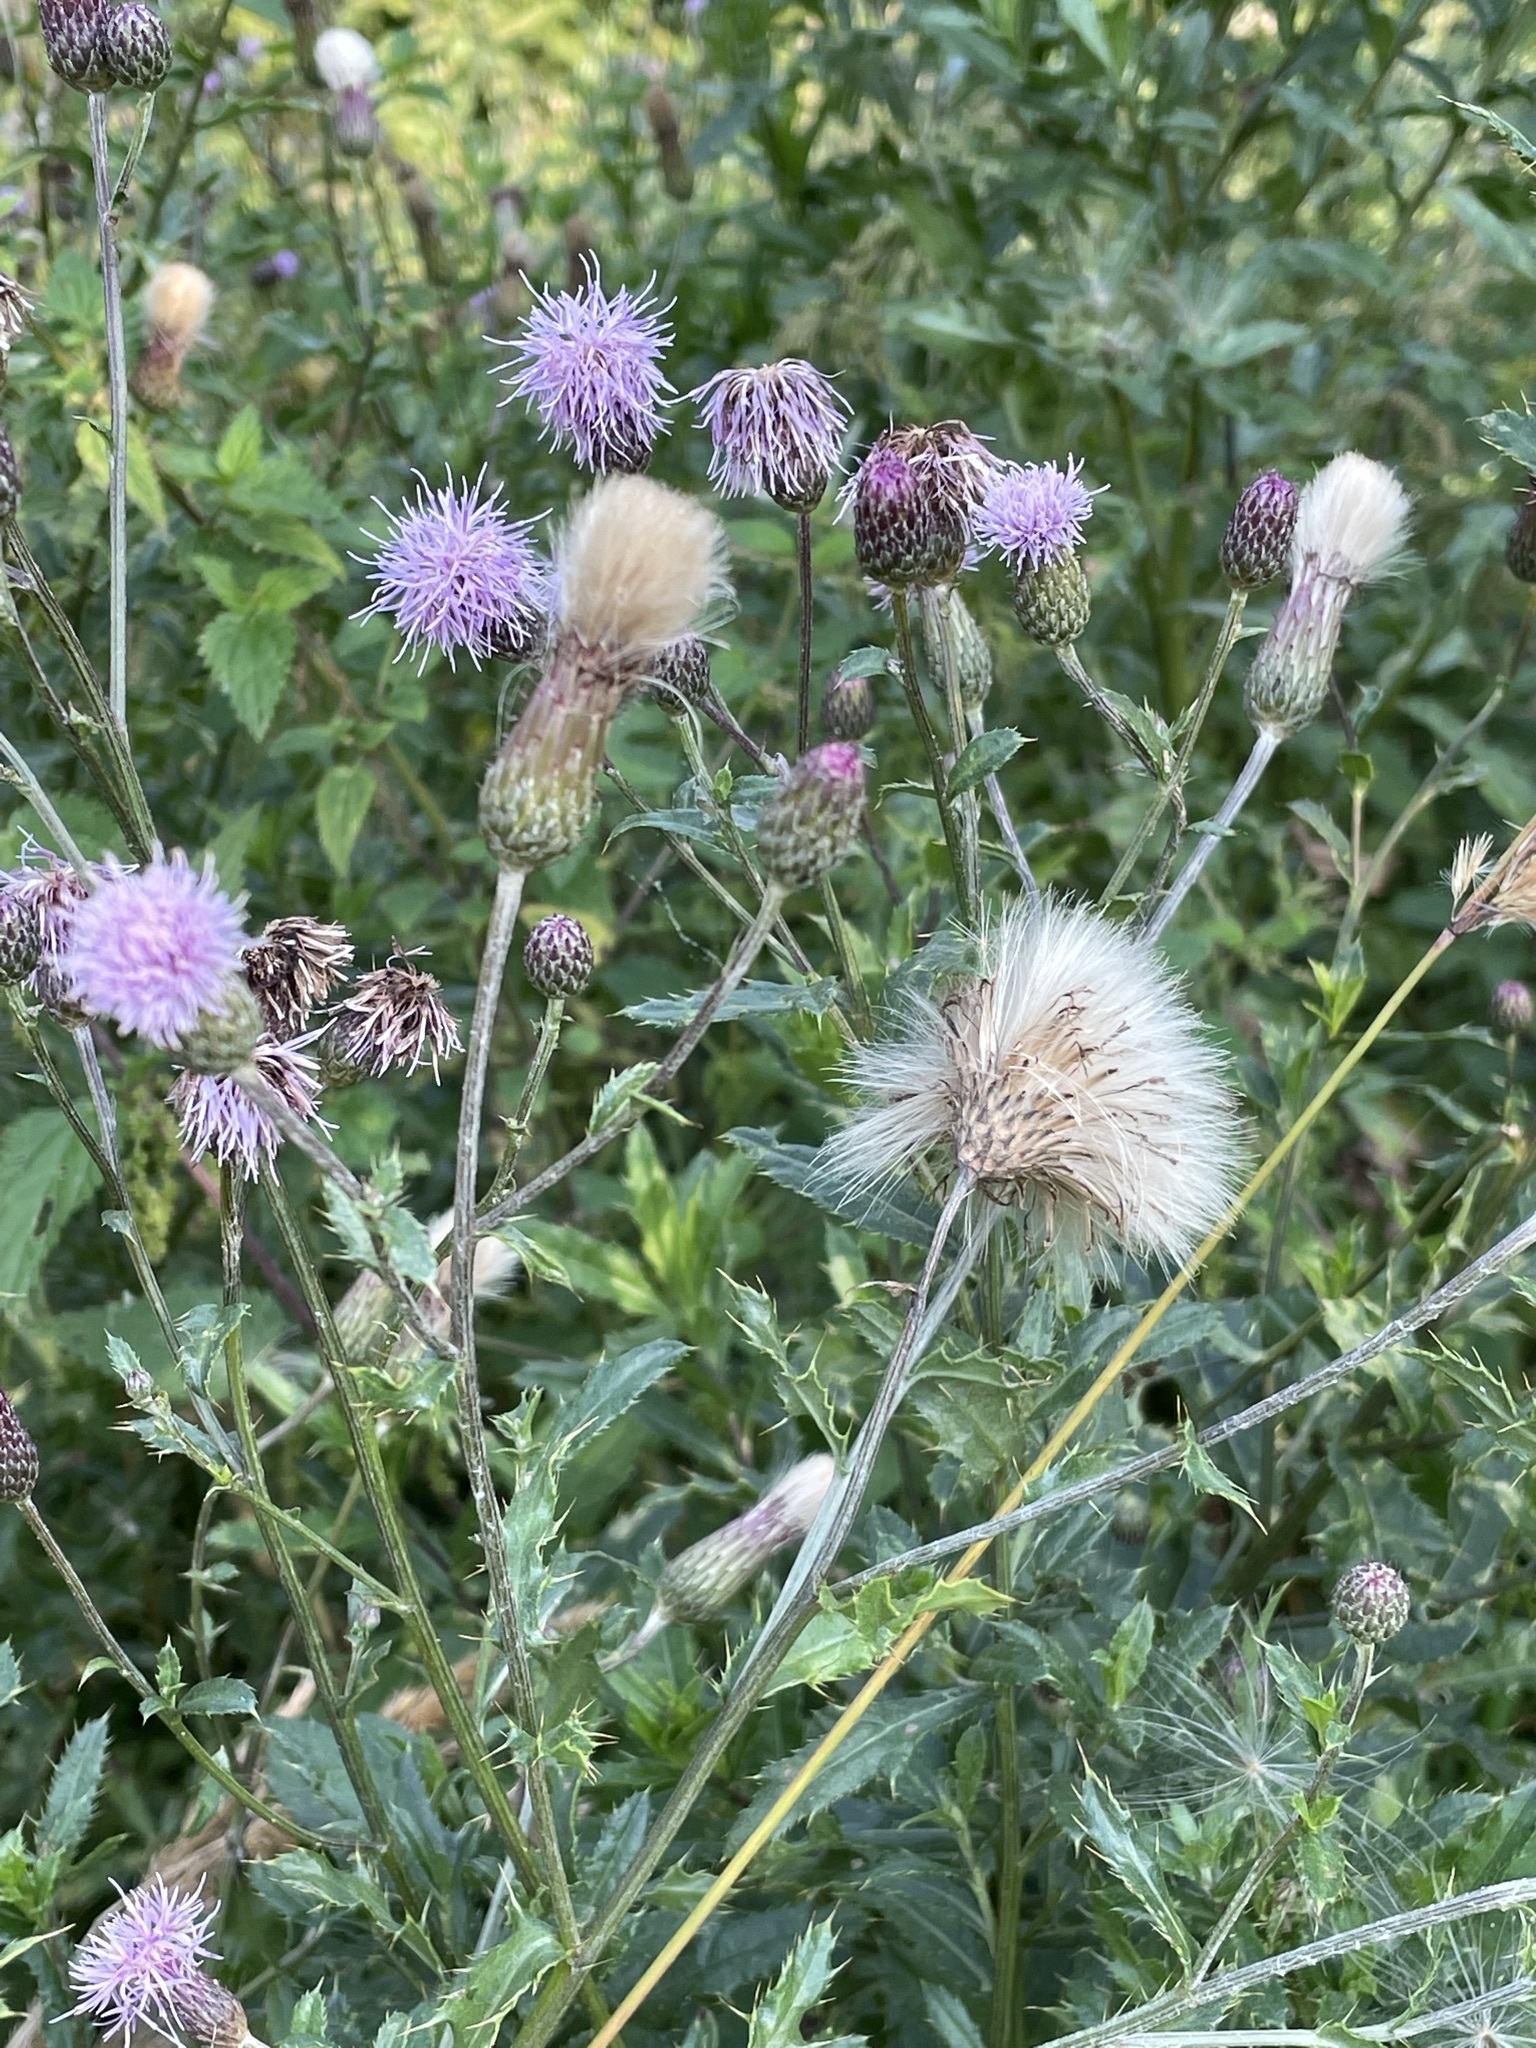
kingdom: Plantae
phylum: Tracheophyta
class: Magnoliopsida
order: Asterales
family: Asteraceae
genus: Cirsium
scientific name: Cirsium arvense
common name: Creeping thistle
